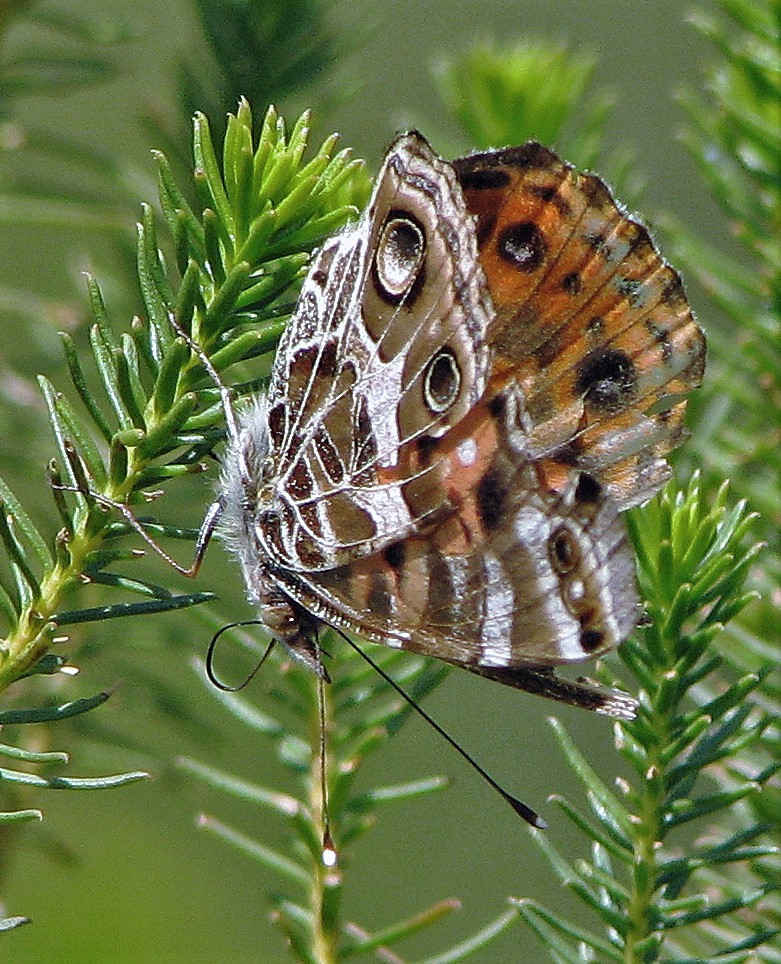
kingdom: Animalia
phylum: Arthropoda
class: Insecta
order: Lepidoptera
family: Nymphalidae
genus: Vanessa
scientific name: Vanessa braziliensis
